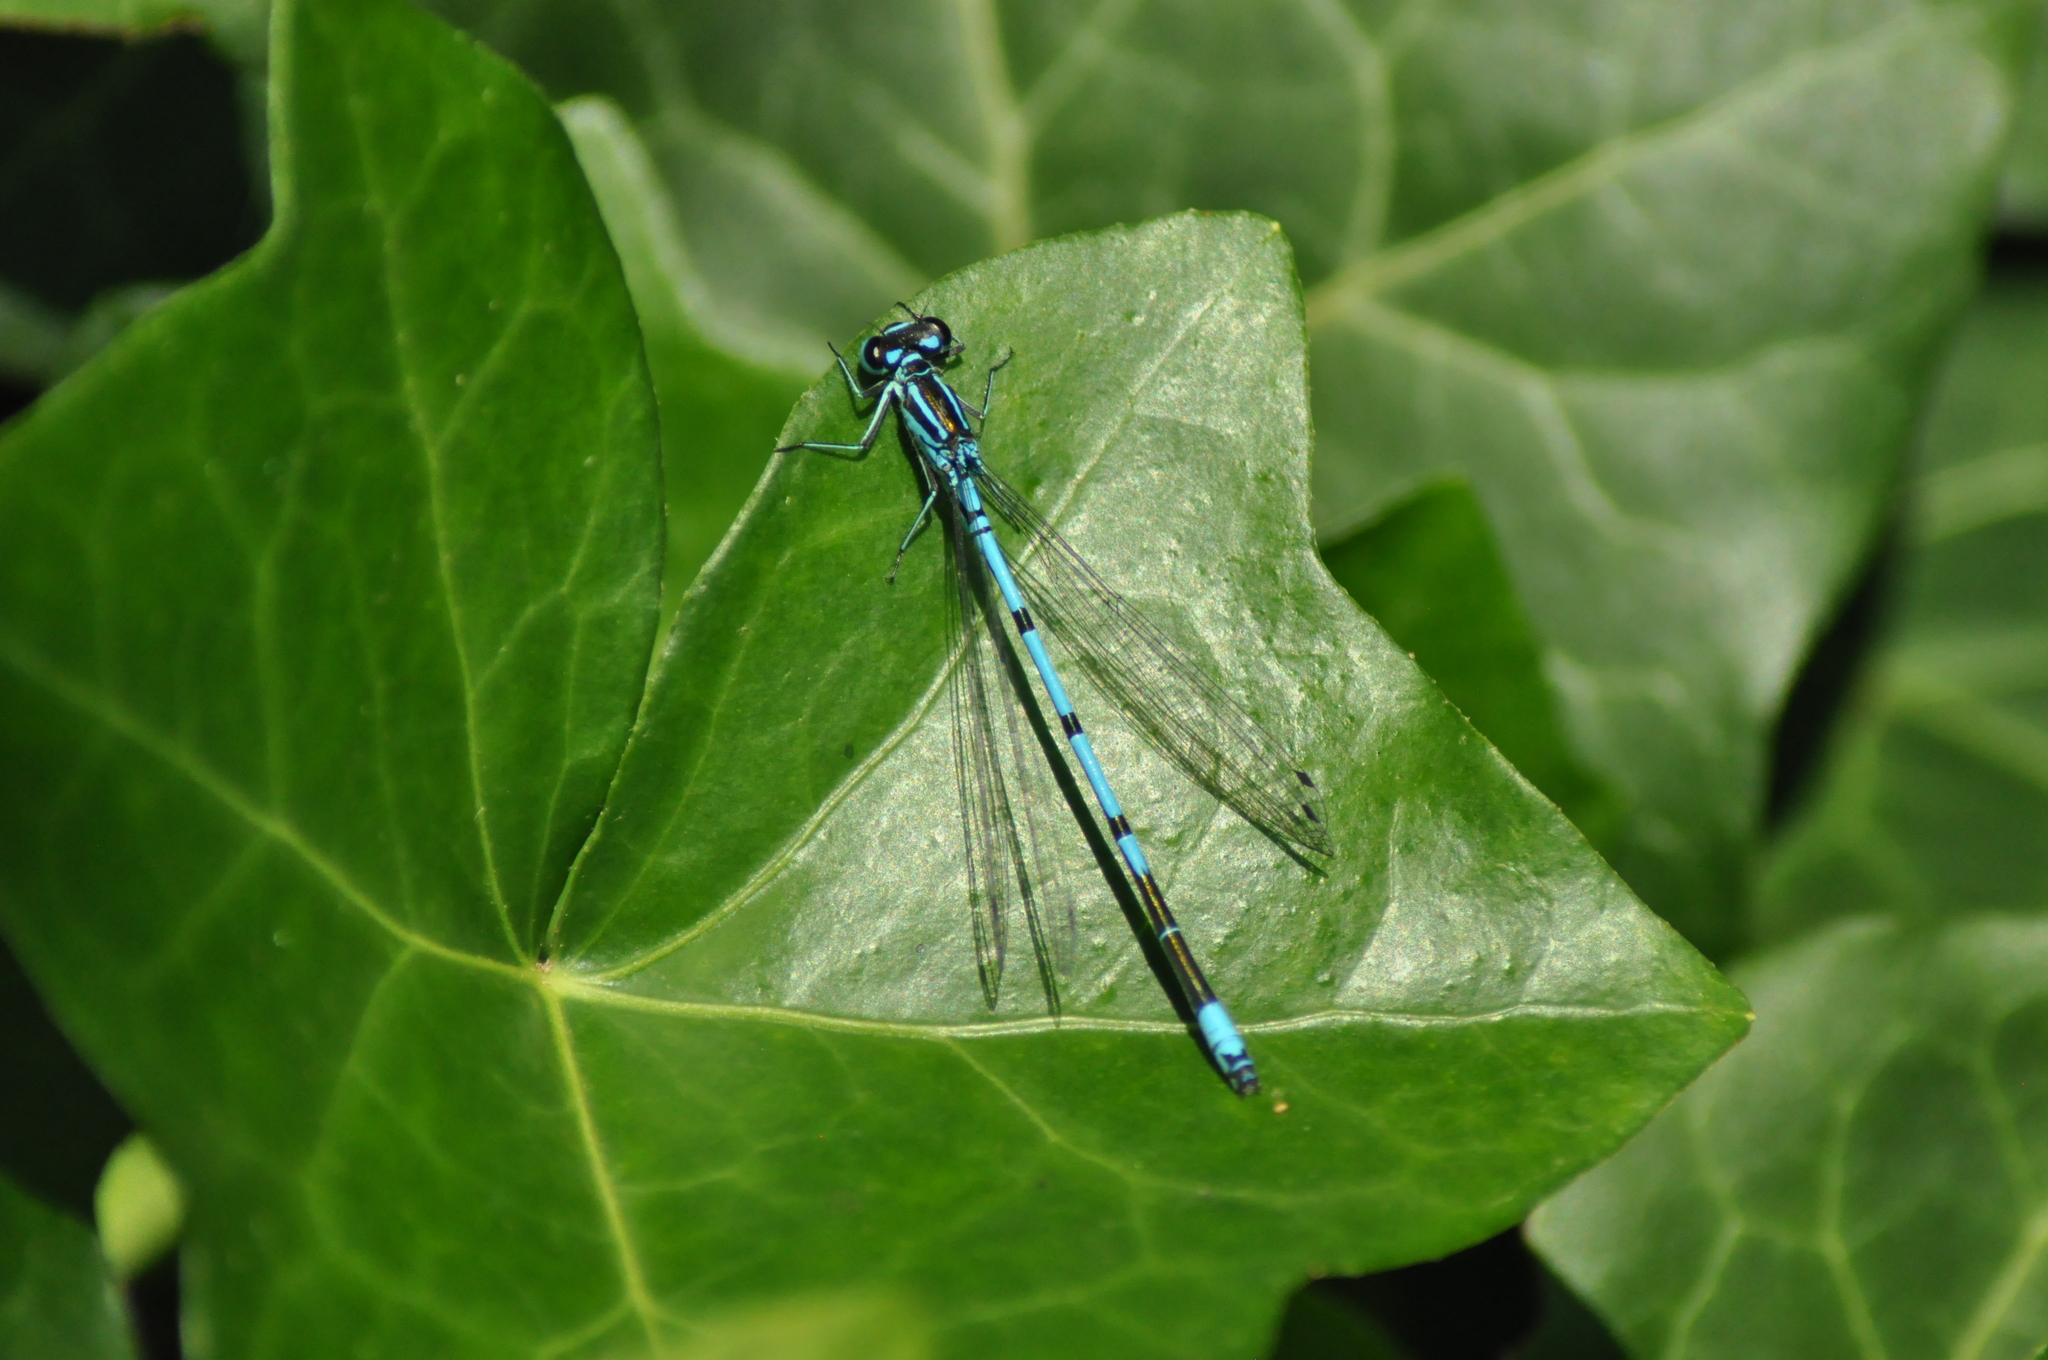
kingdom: Animalia
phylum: Arthropoda
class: Insecta
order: Odonata
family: Coenagrionidae
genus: Coenagrion
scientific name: Coenagrion puella
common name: Azure damselfly
